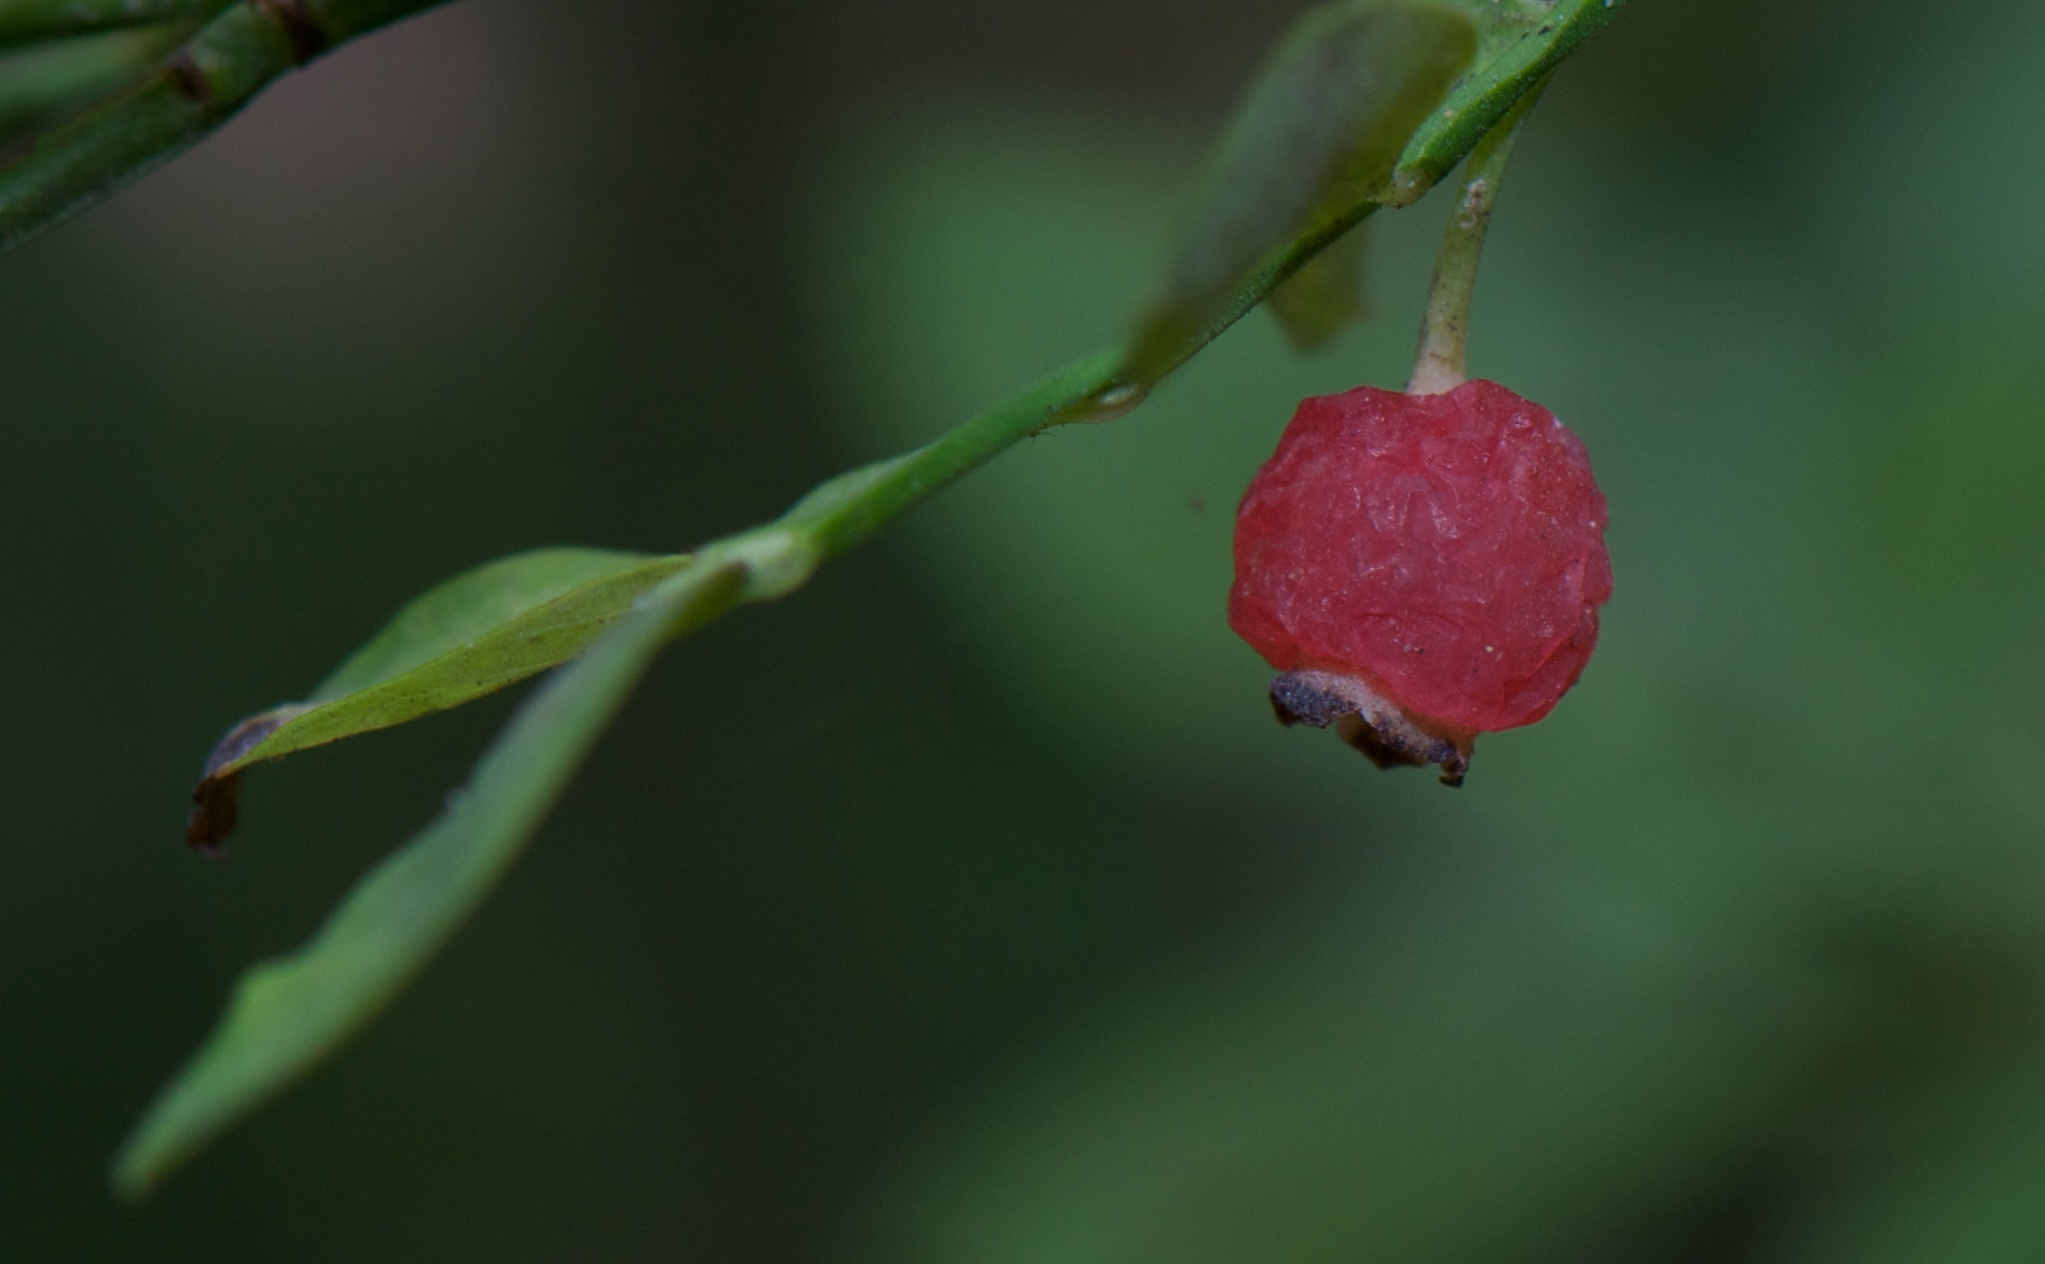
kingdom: Plantae
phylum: Tracheophyta
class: Magnoliopsida
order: Ericales
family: Ericaceae
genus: Vaccinium
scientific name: Vaccinium parvifolium
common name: Red-huckleberry
